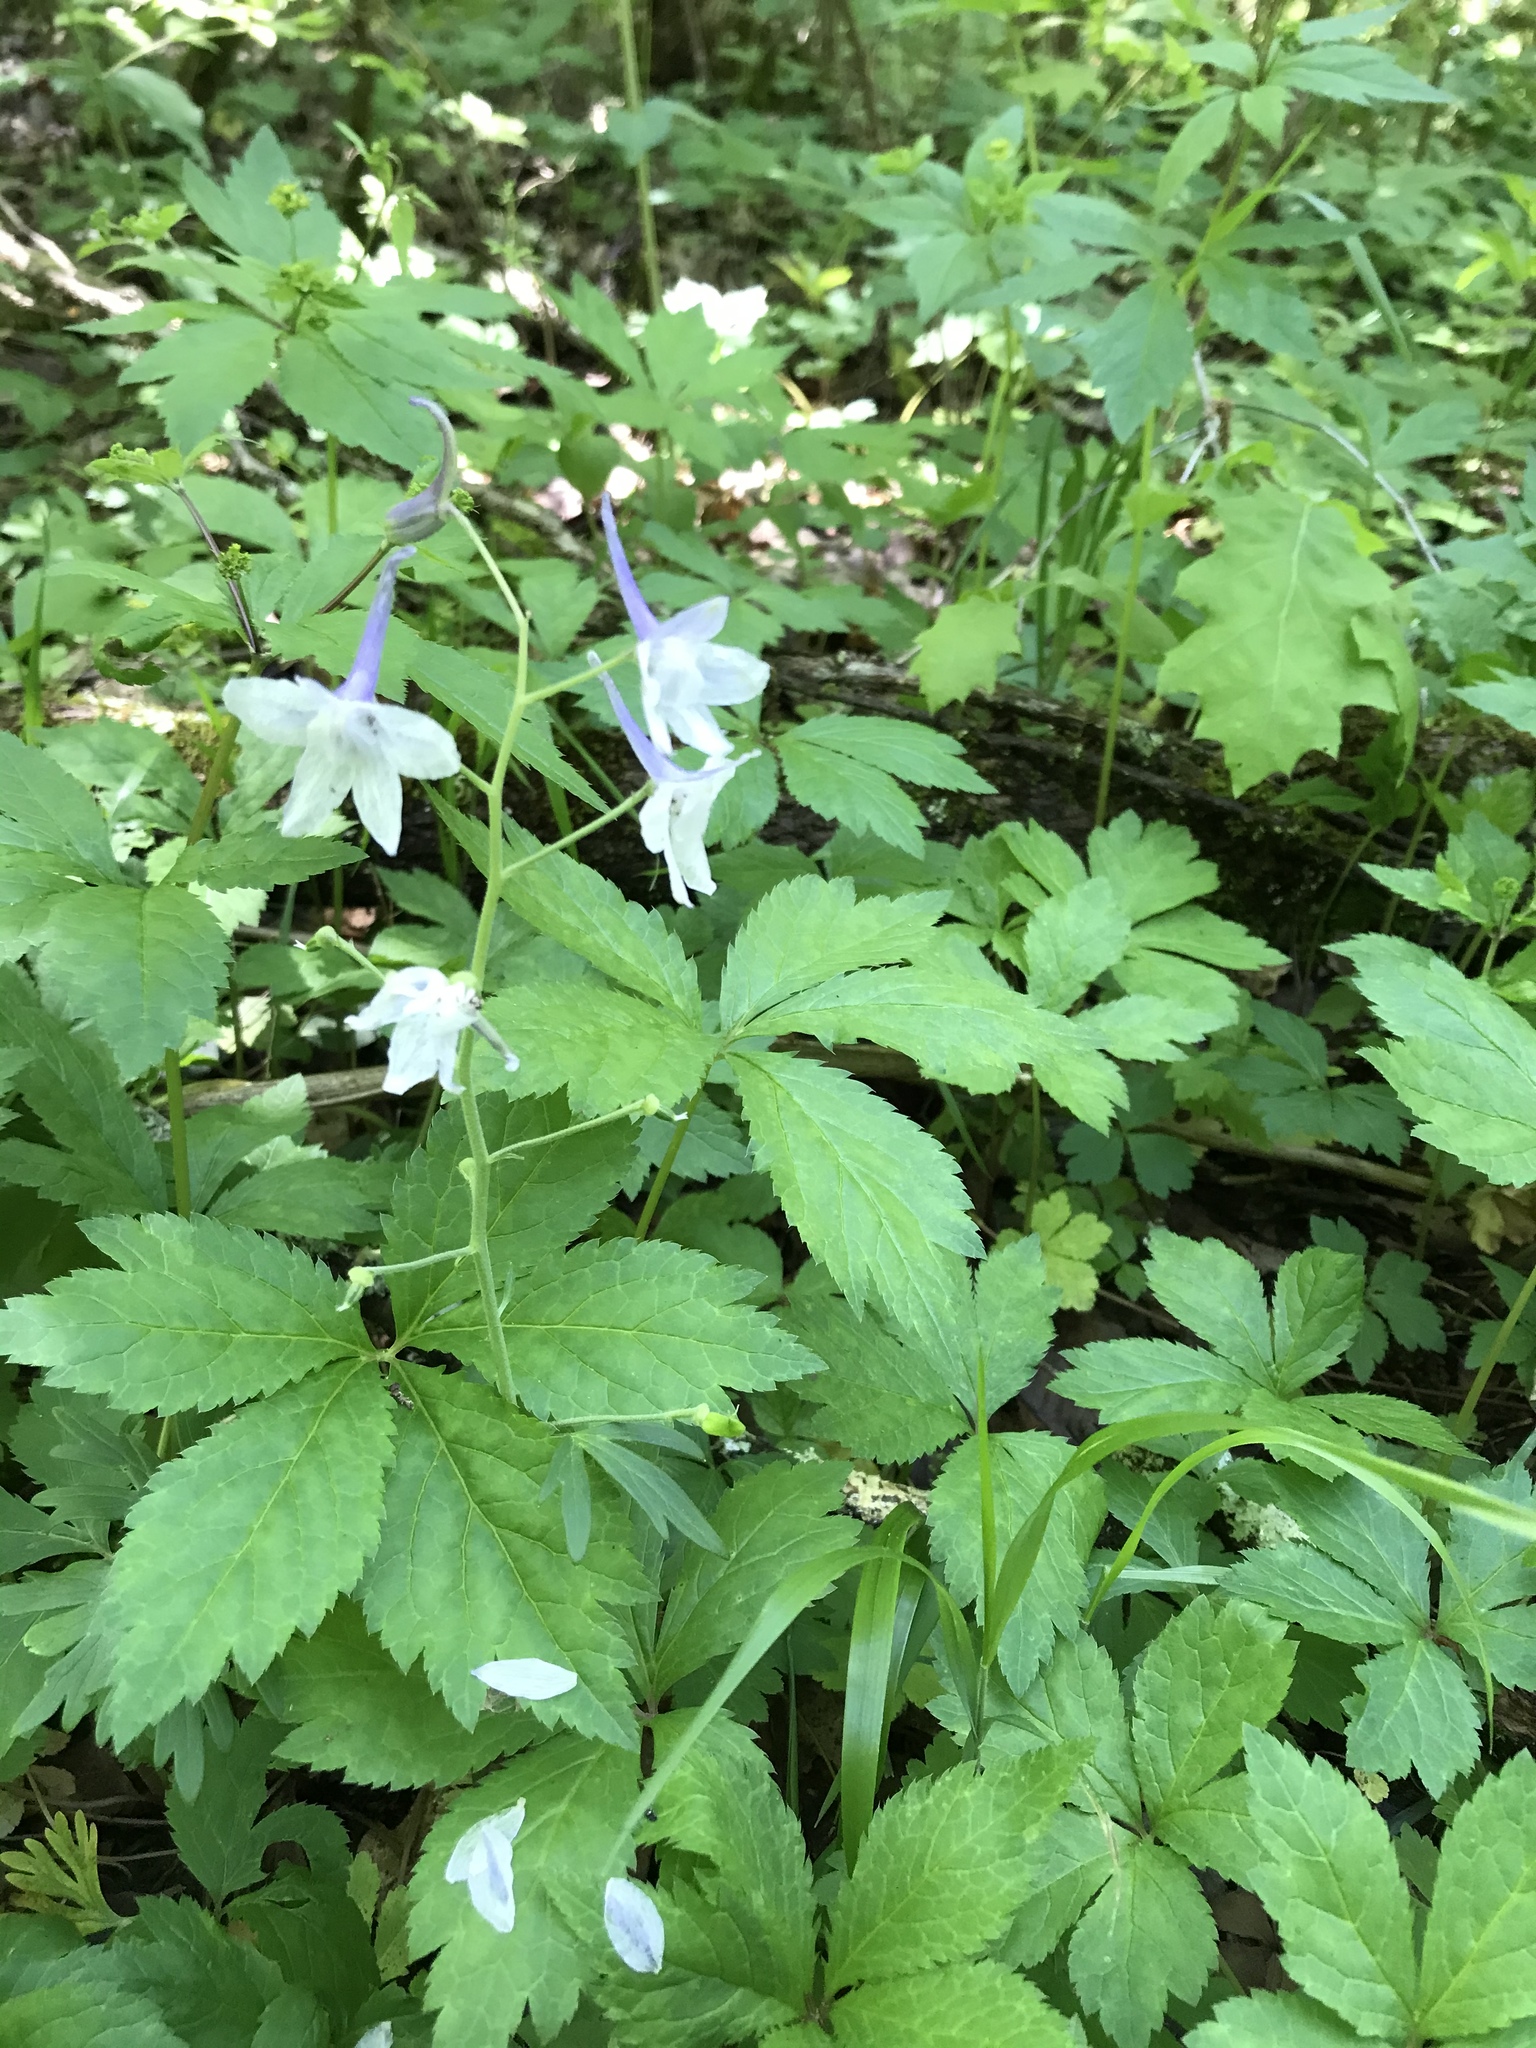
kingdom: Plantae
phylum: Tracheophyta
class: Magnoliopsida
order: Ranunculales
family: Ranunculaceae
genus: Delphinium
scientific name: Delphinium tricorne
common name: Dwarf larkspur
